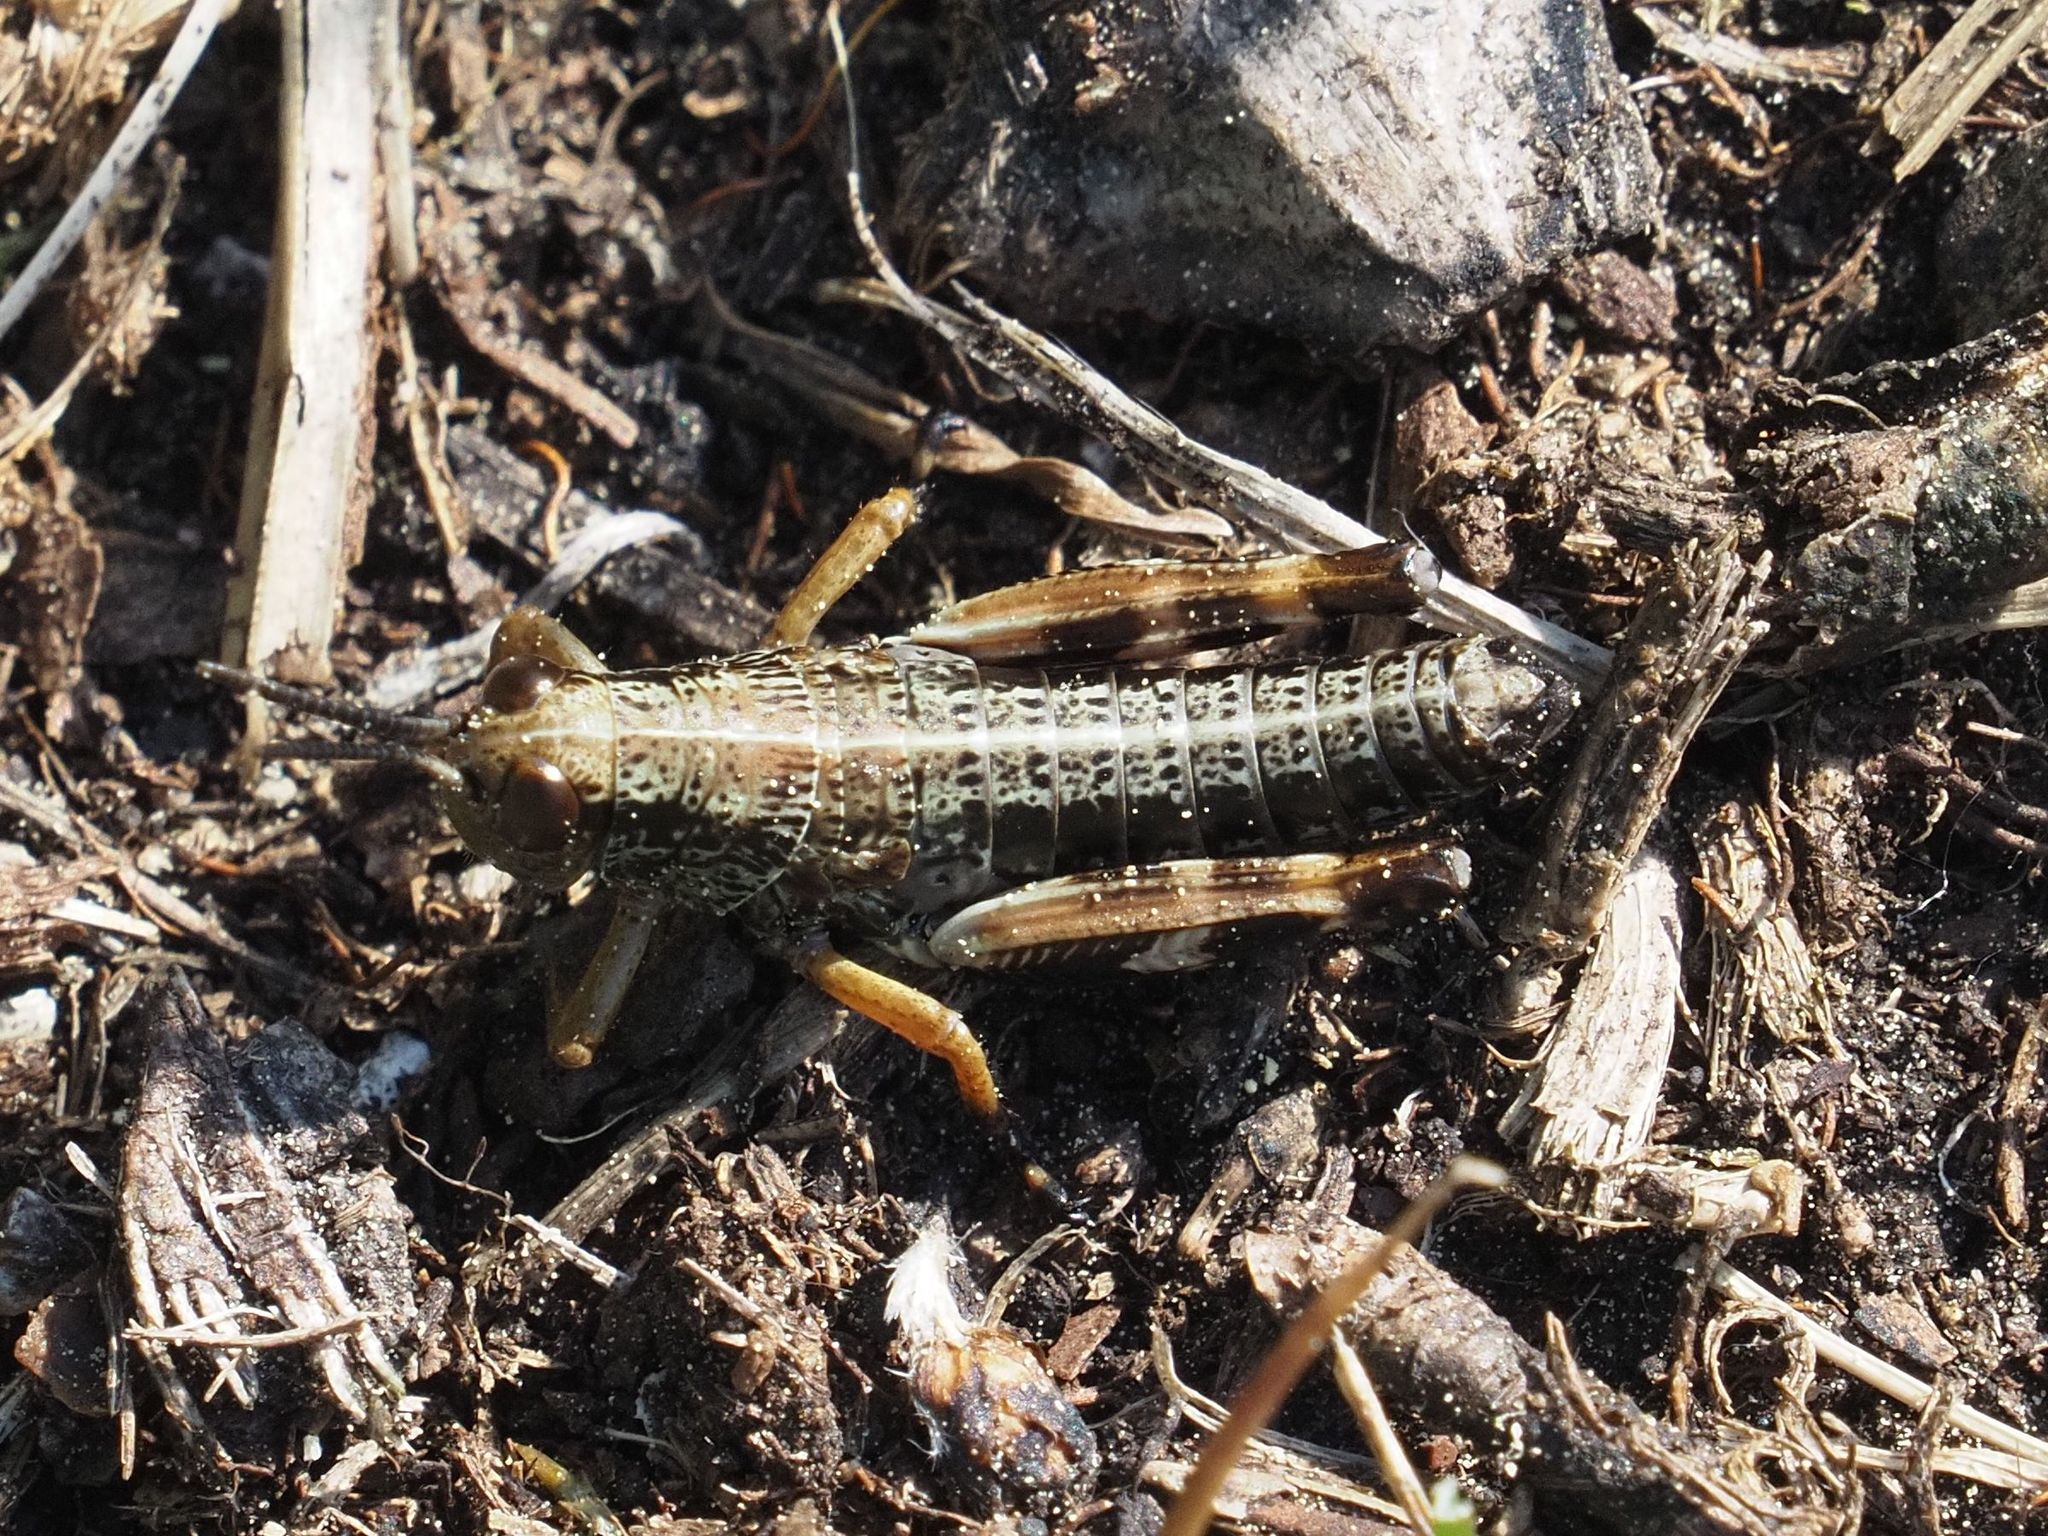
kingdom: Animalia
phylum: Arthropoda
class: Insecta
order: Orthoptera
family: Acrididae
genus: Miramella
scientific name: Miramella alpina
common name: Green mountain grasshopper
